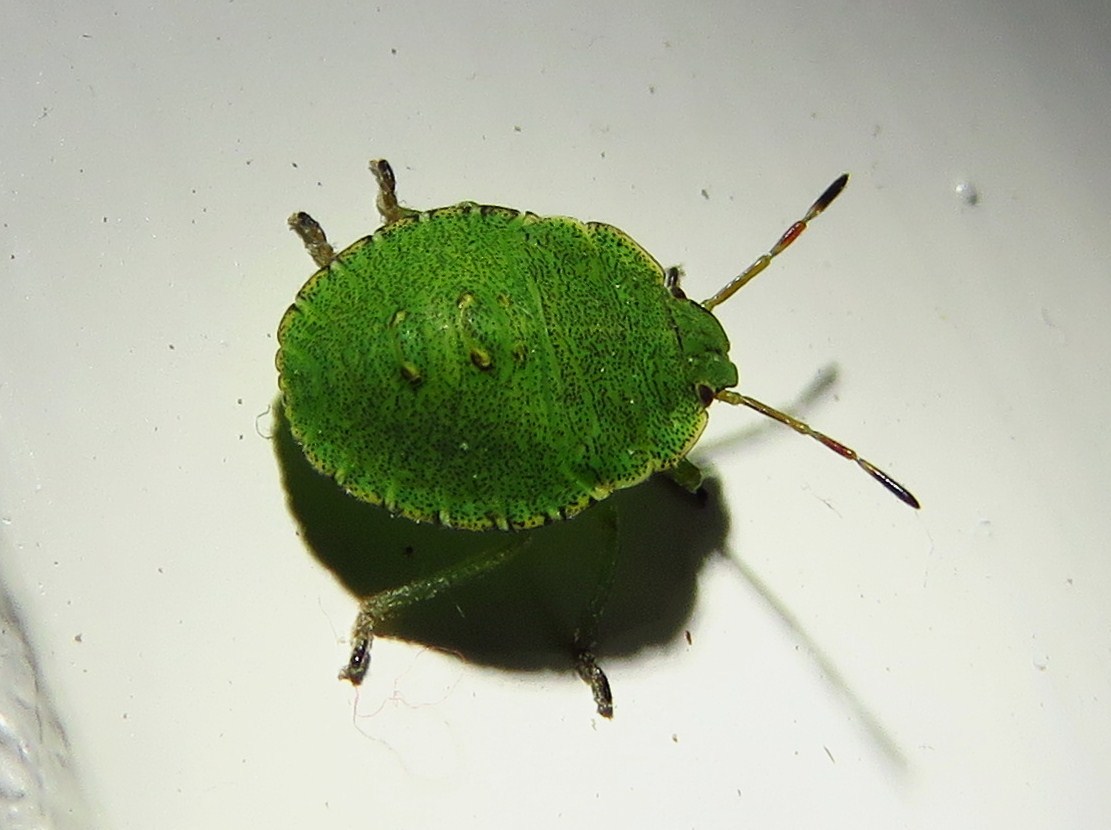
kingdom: Animalia
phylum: Arthropoda
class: Insecta
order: Hemiptera
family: Pentatomidae
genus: Palomena
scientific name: Palomena prasina
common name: Green shieldbug
